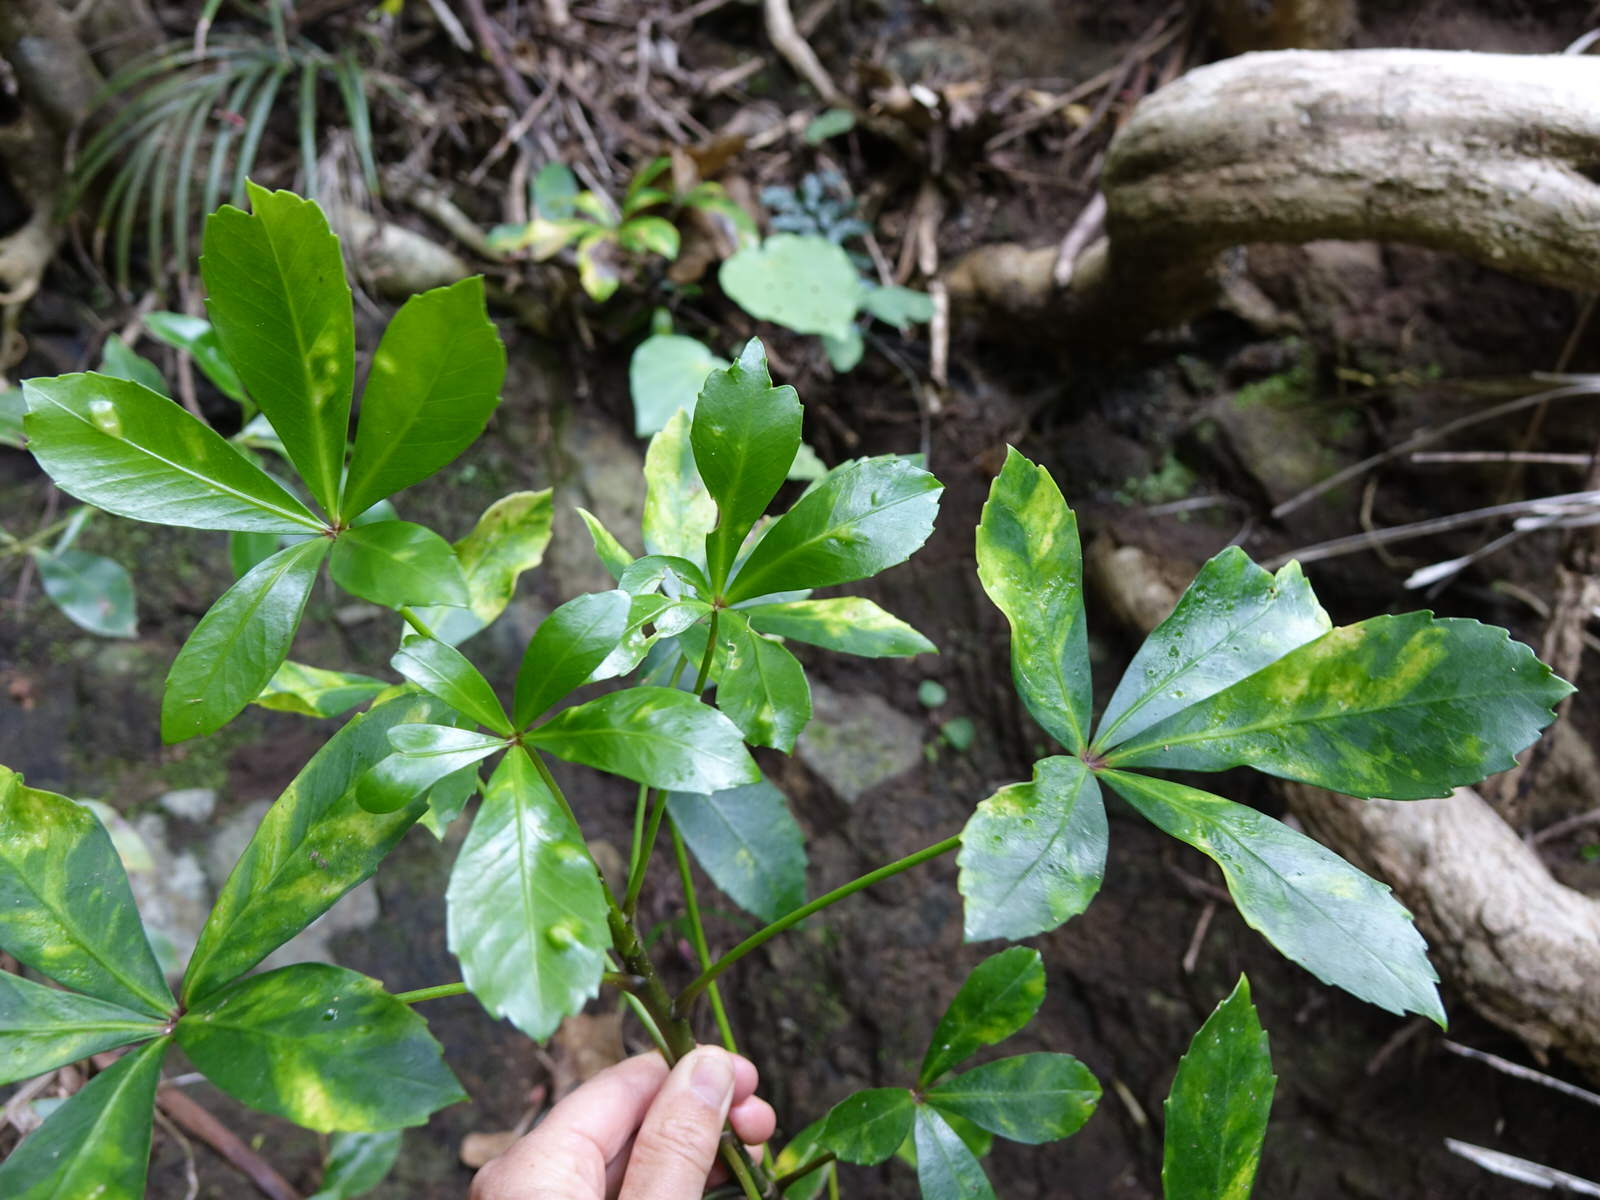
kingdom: Plantae
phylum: Tracheophyta
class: Magnoliopsida
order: Apiales
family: Araliaceae
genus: Pseudopanax
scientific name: Pseudopanax lessonii
